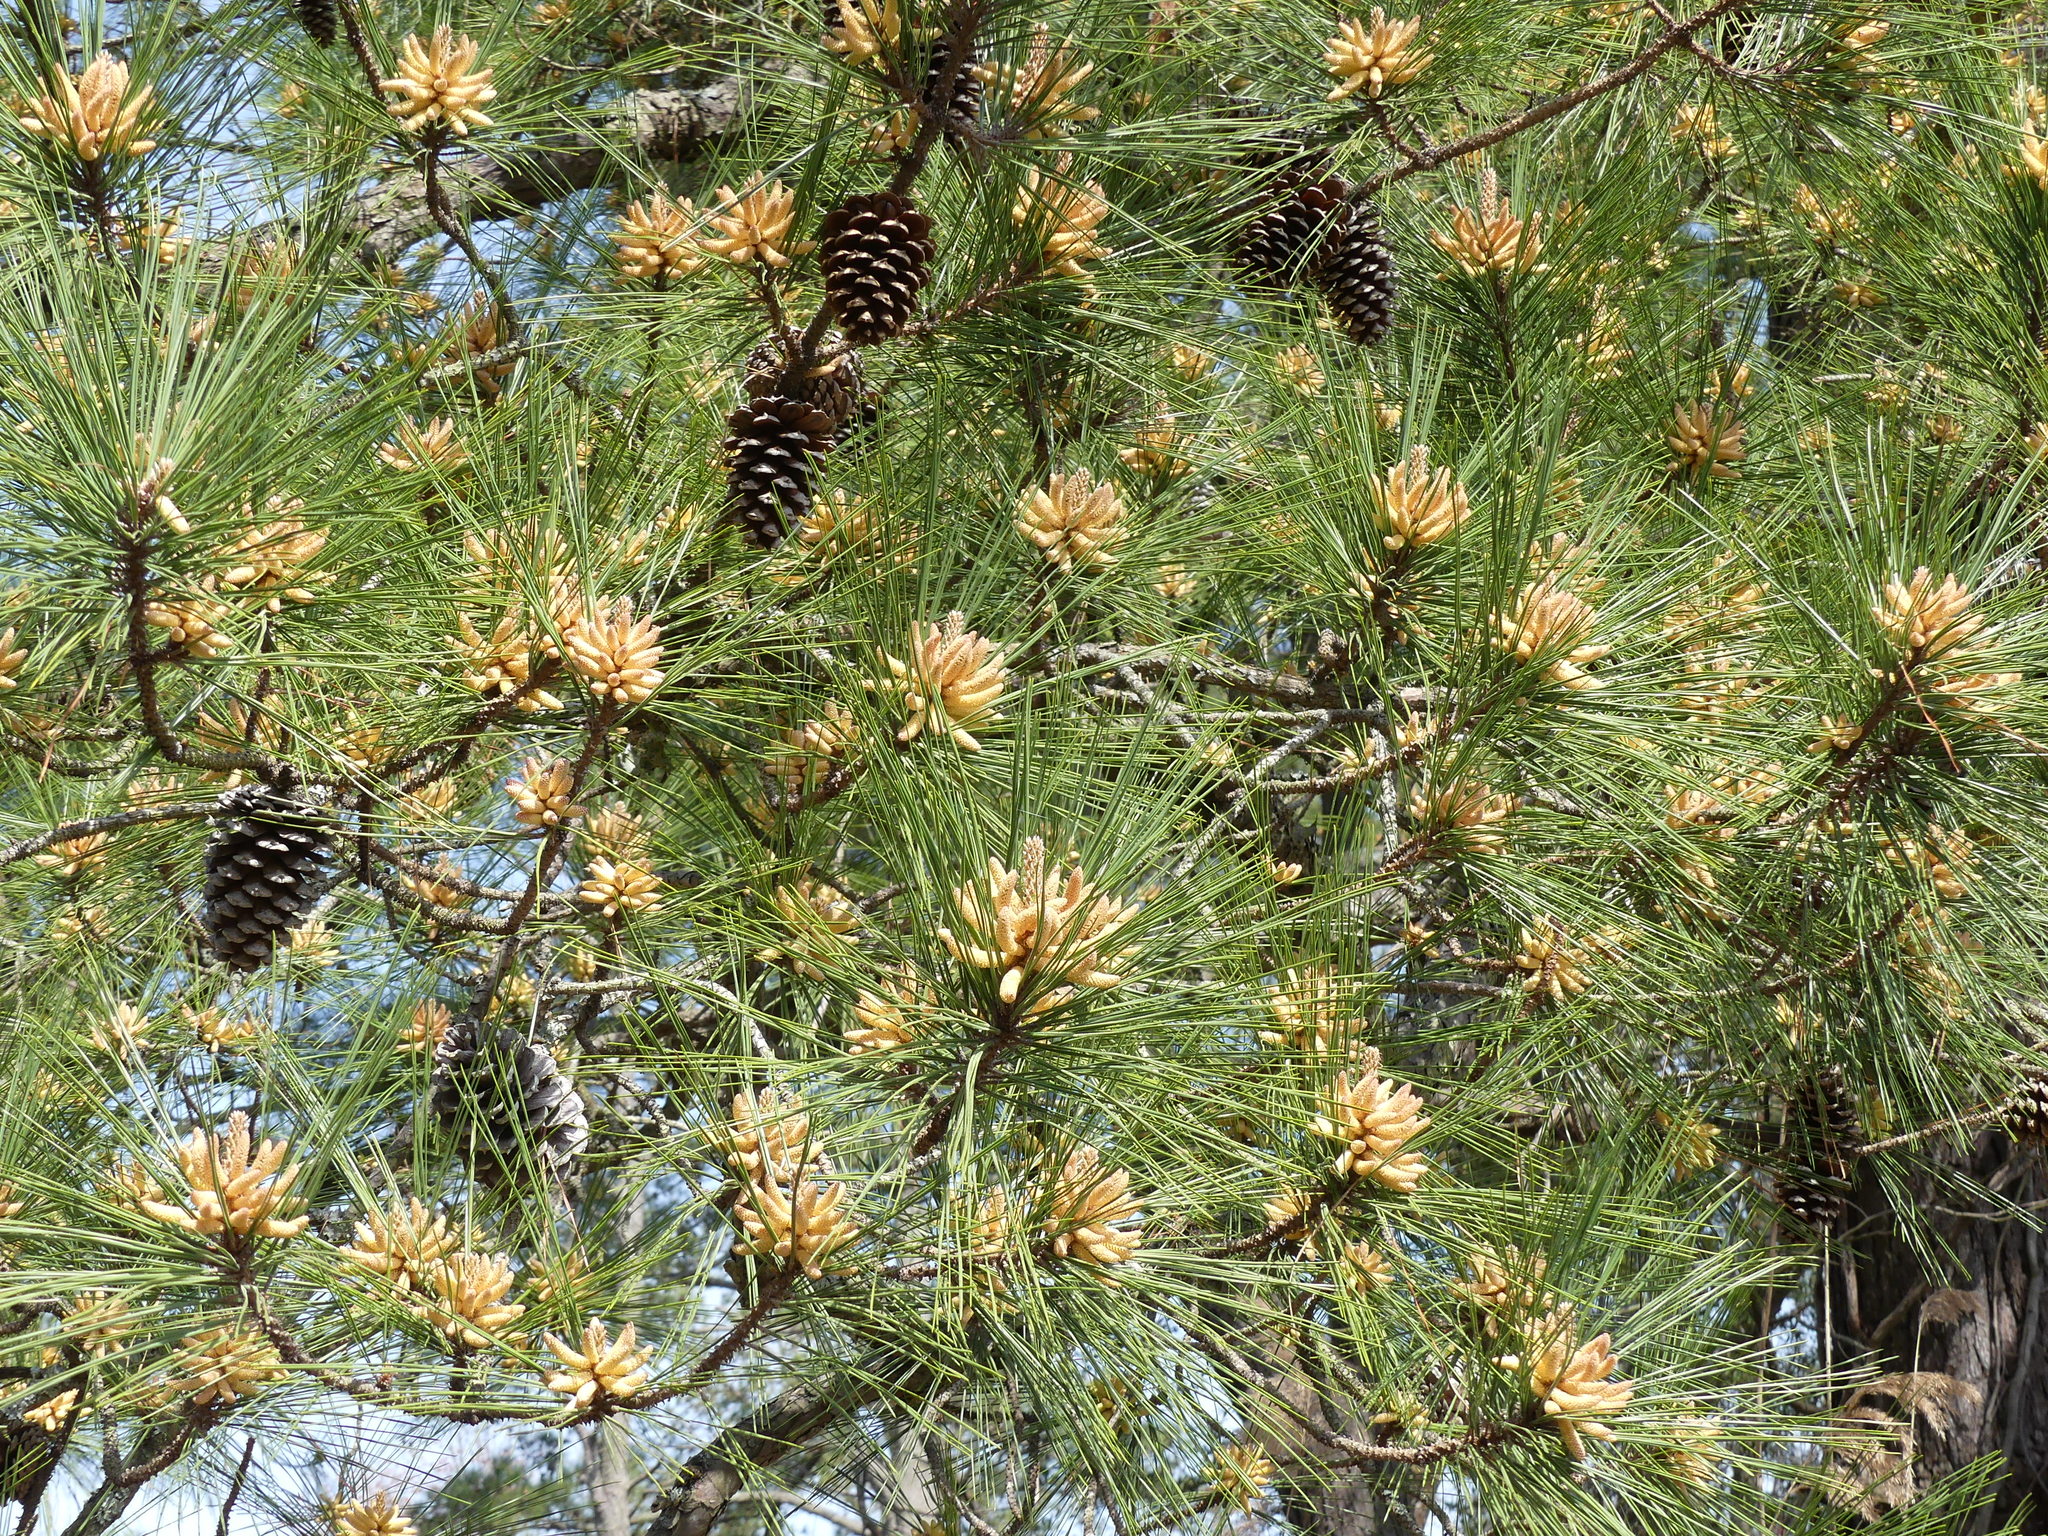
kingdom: Plantae
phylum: Tracheophyta
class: Pinopsida
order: Pinales
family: Pinaceae
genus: Pinus
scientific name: Pinus taeda
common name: Loblolly pine
